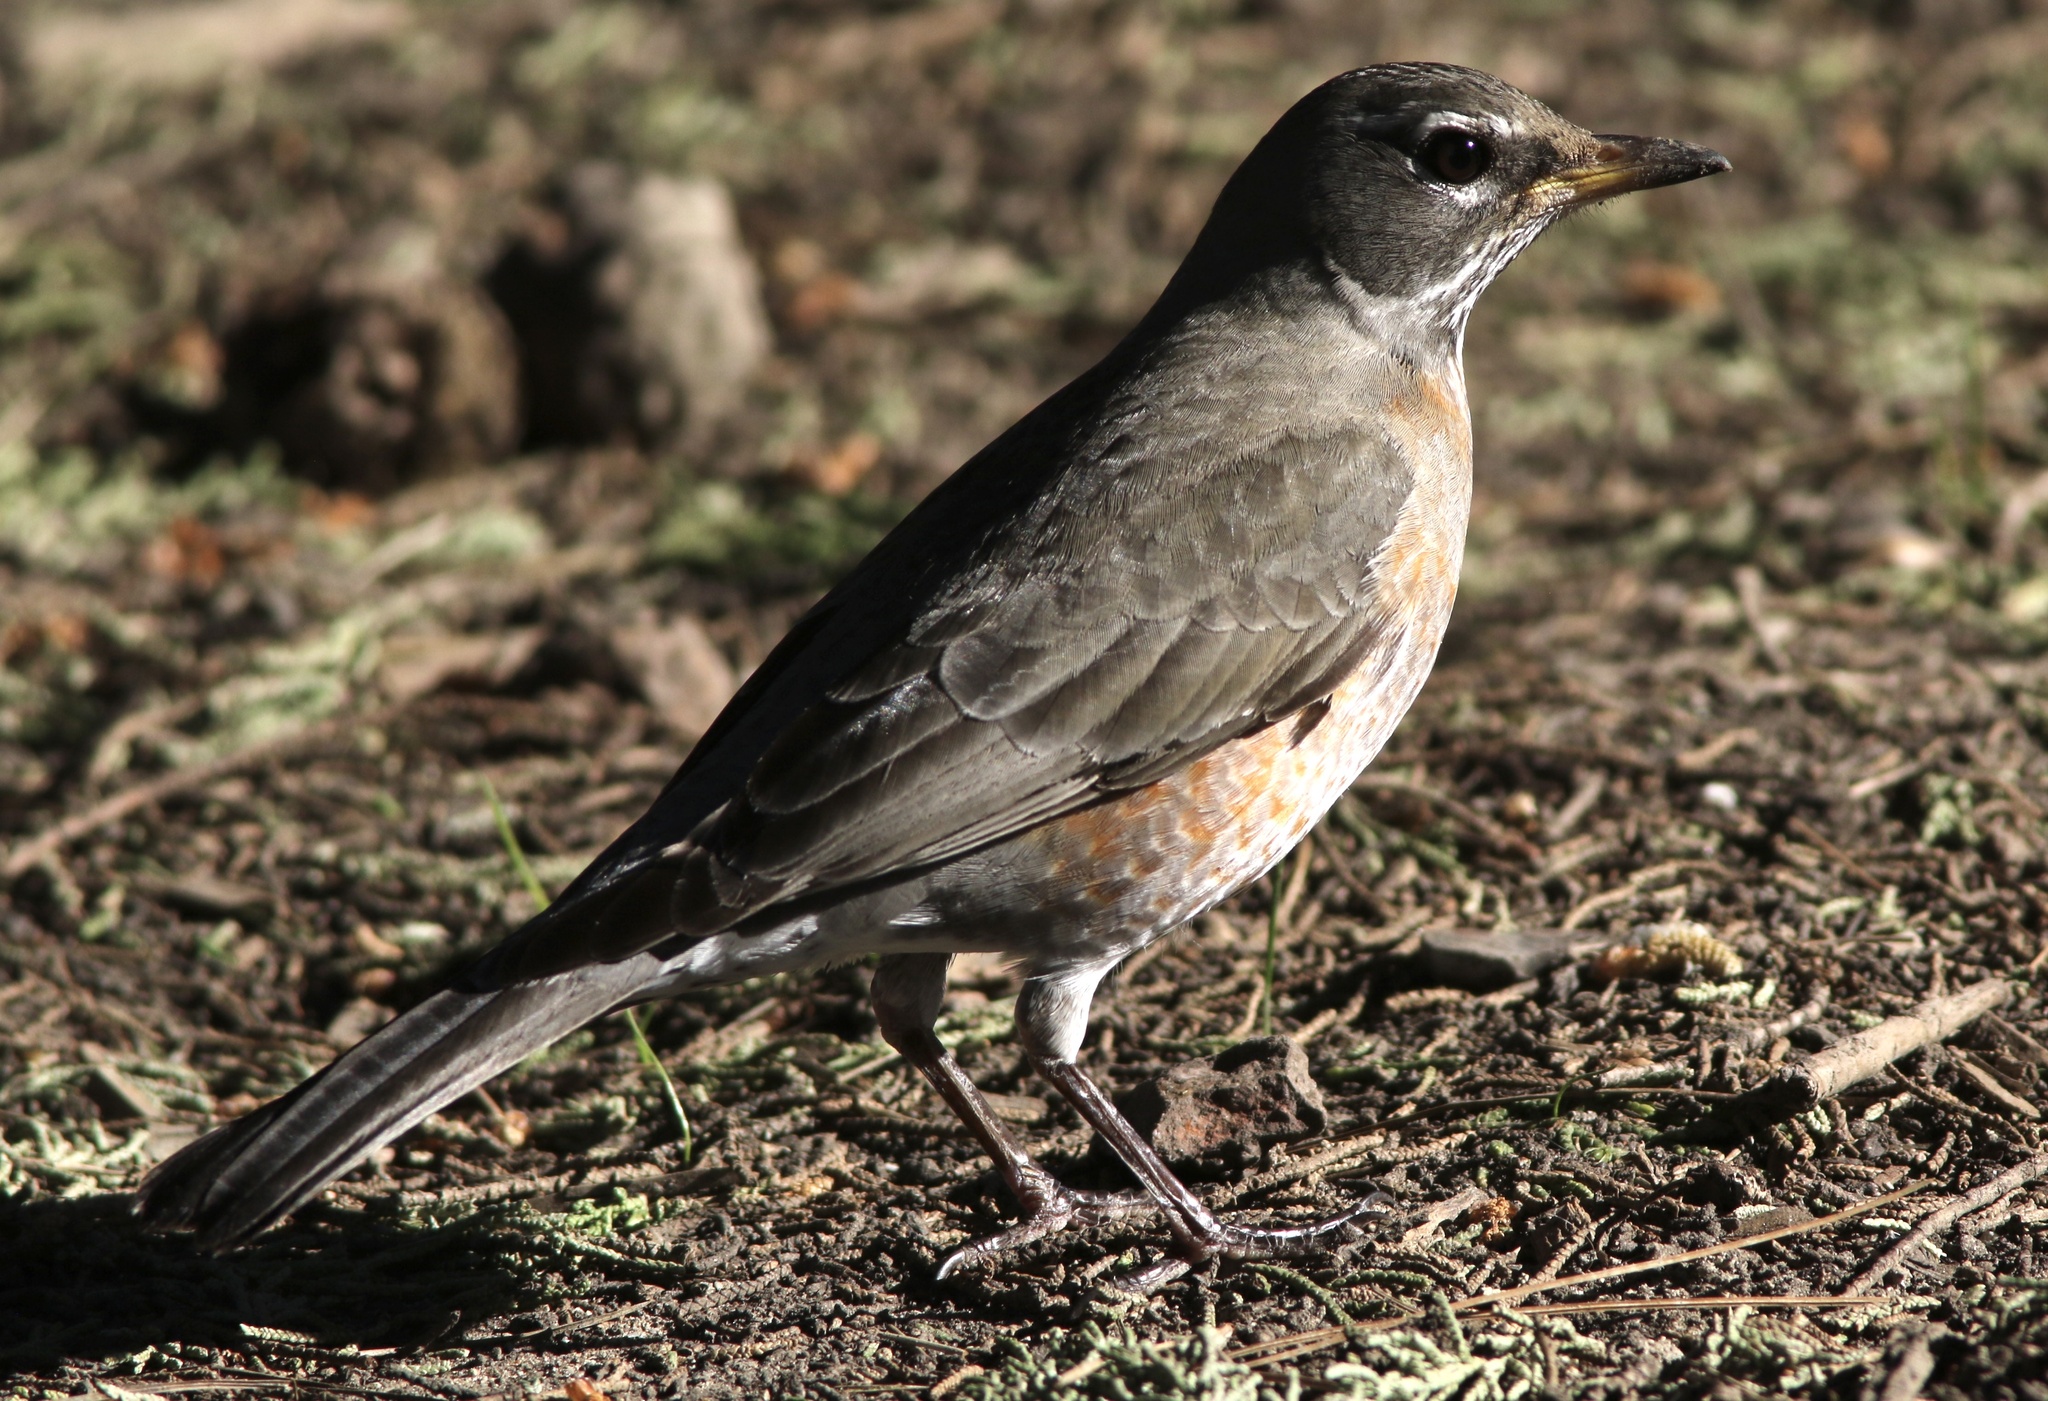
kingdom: Animalia
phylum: Chordata
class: Aves
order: Passeriformes
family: Turdidae
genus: Turdus
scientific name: Turdus migratorius
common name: American robin
